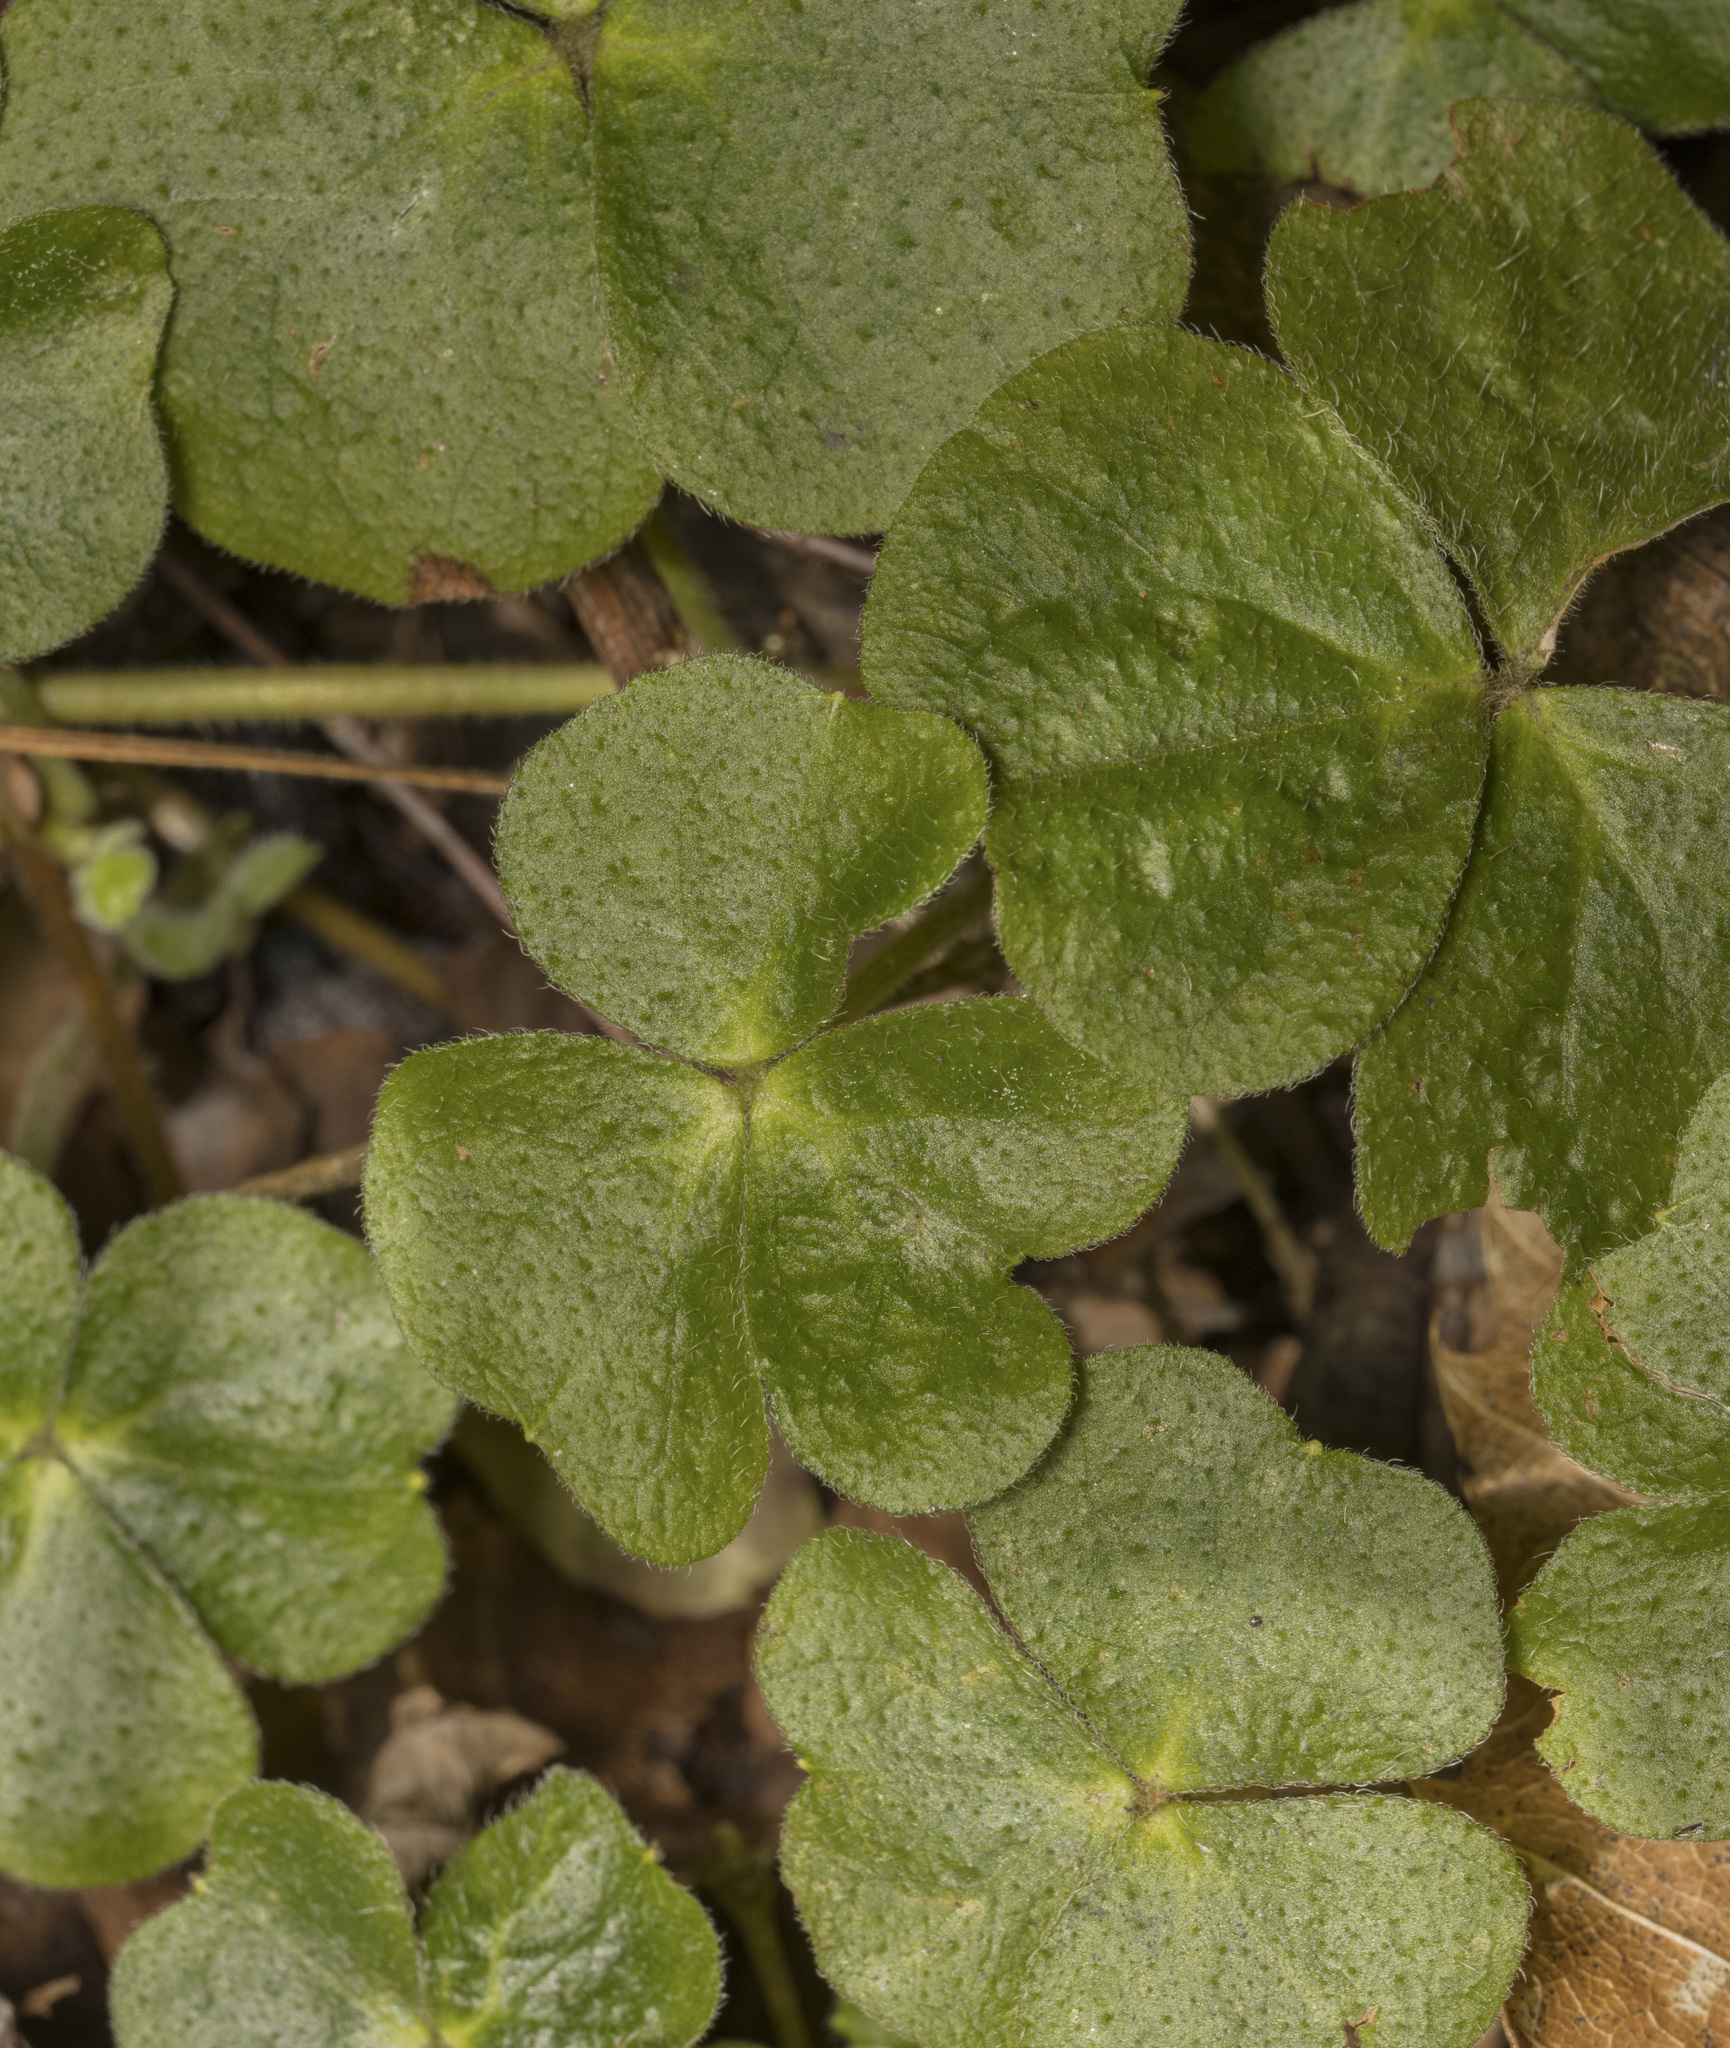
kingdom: Plantae
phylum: Tracheophyta
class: Magnoliopsida
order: Oxalidales
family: Oxalidaceae
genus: Oxalis
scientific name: Oxalis dumetorum
